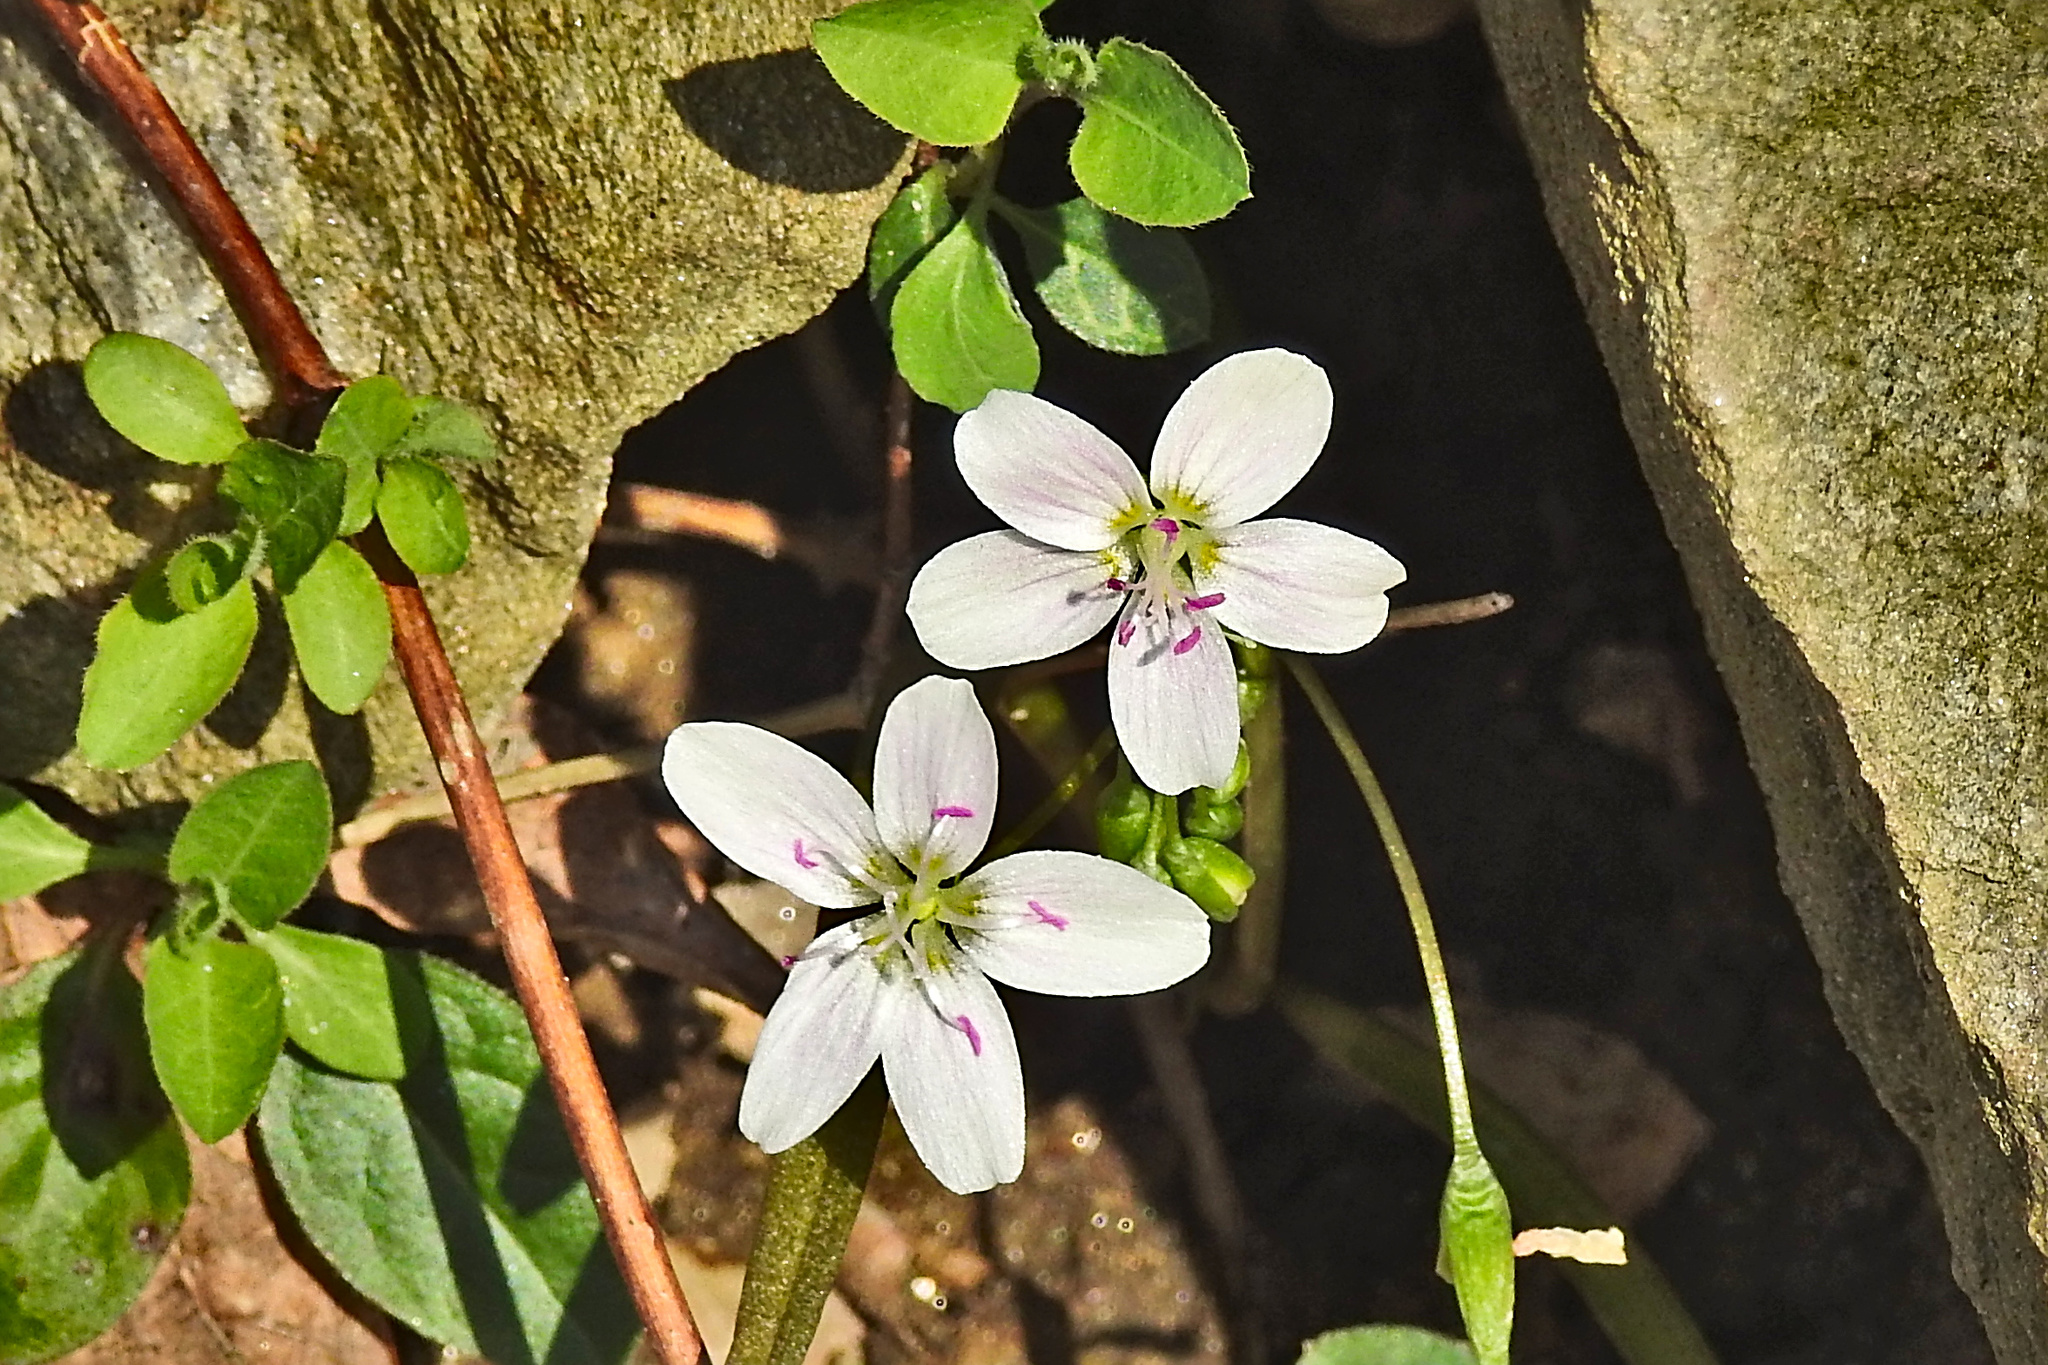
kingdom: Plantae
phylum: Tracheophyta
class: Magnoliopsida
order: Caryophyllales
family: Montiaceae
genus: Claytonia
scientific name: Claytonia virginica
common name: Virginia springbeauty
